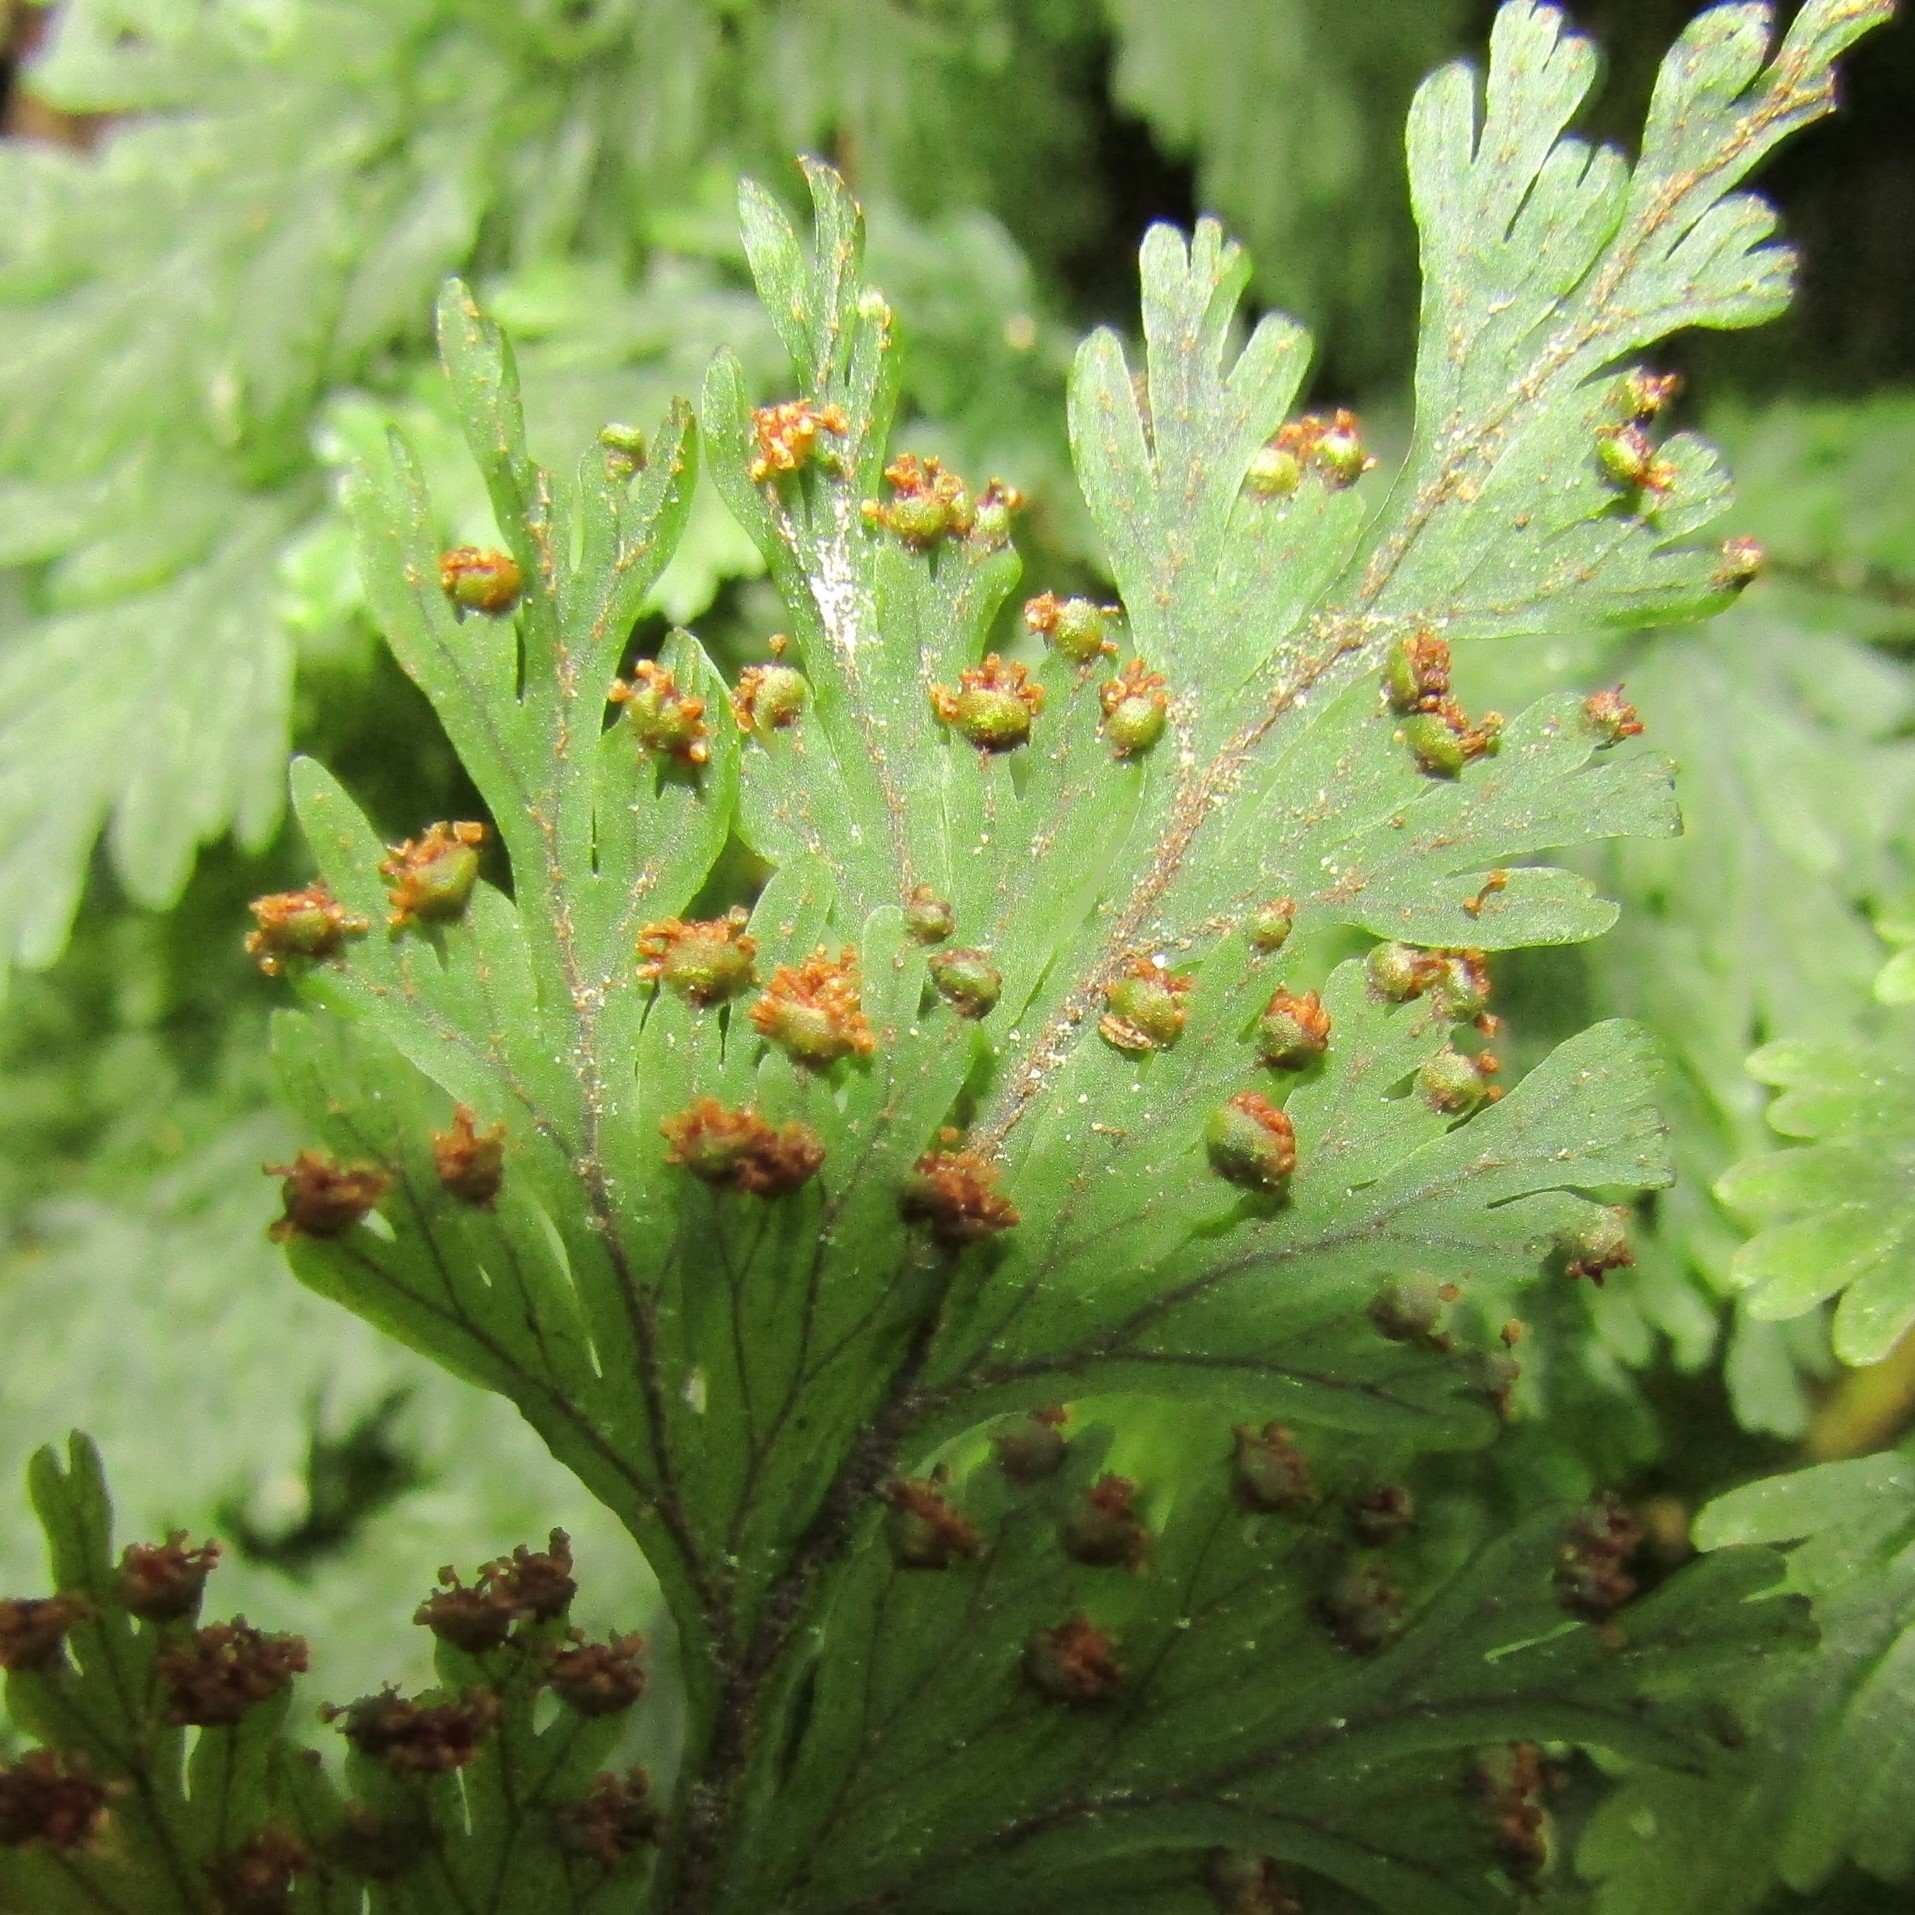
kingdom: Plantae
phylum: Tracheophyta
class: Polypodiopsida
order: Hymenophyllales
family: Hymenophyllaceae
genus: Hymenophyllum
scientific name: Hymenophyllum scabrum
